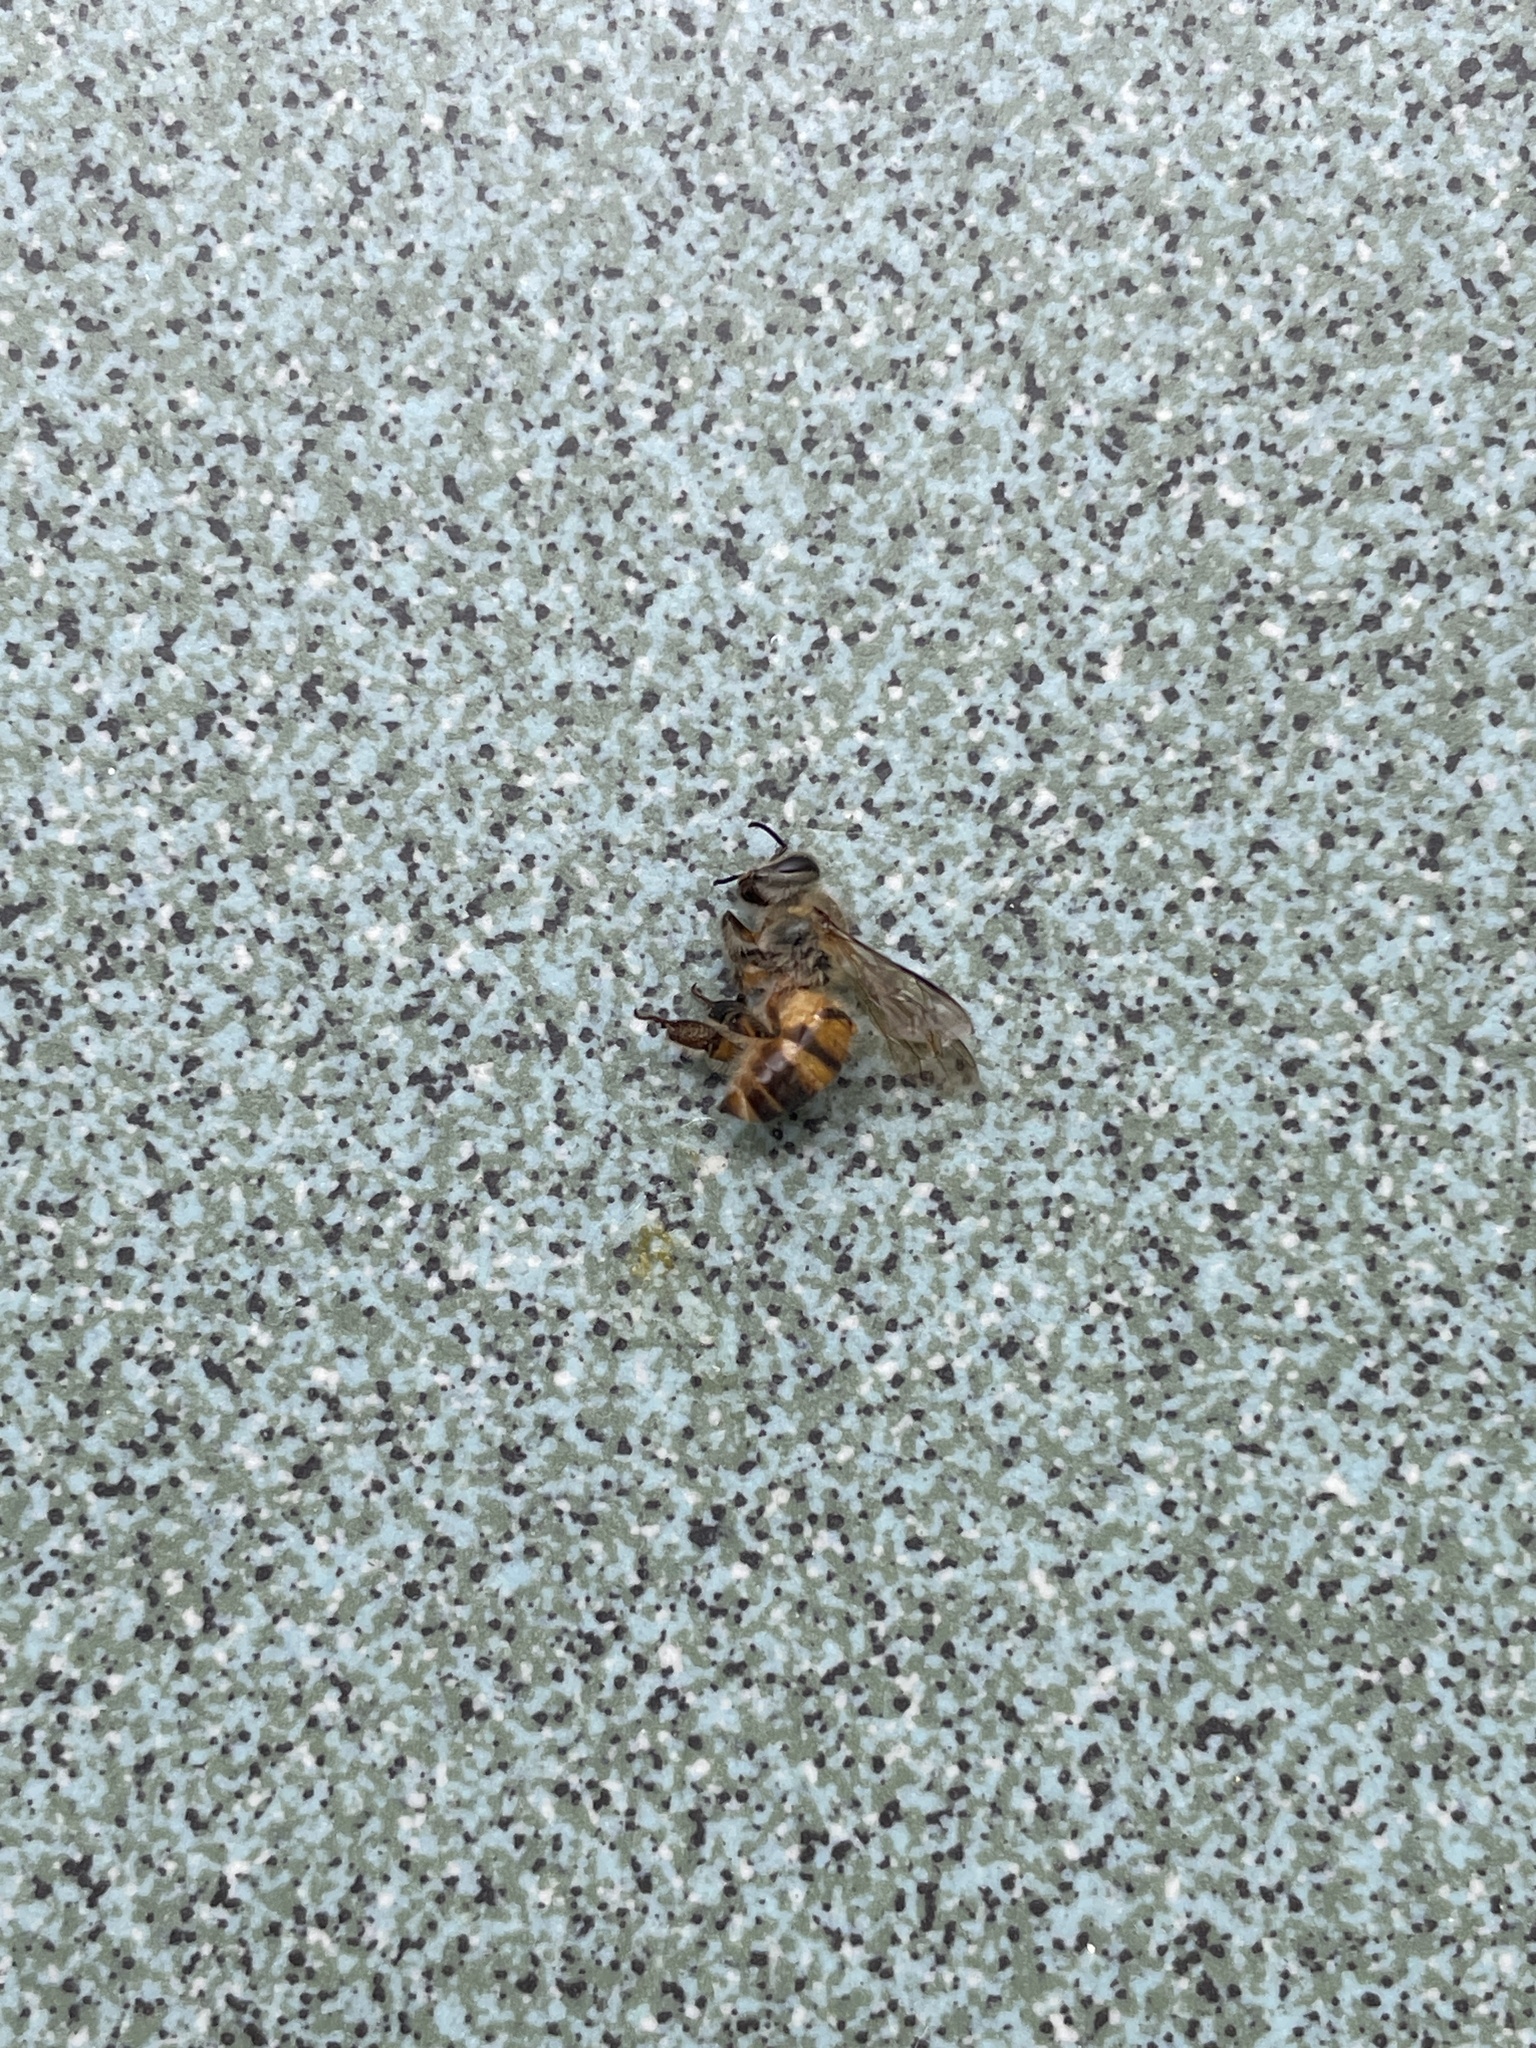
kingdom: Animalia
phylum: Arthropoda
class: Insecta
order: Hymenoptera
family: Apidae
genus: Apis
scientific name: Apis cerana
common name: Honey bee
